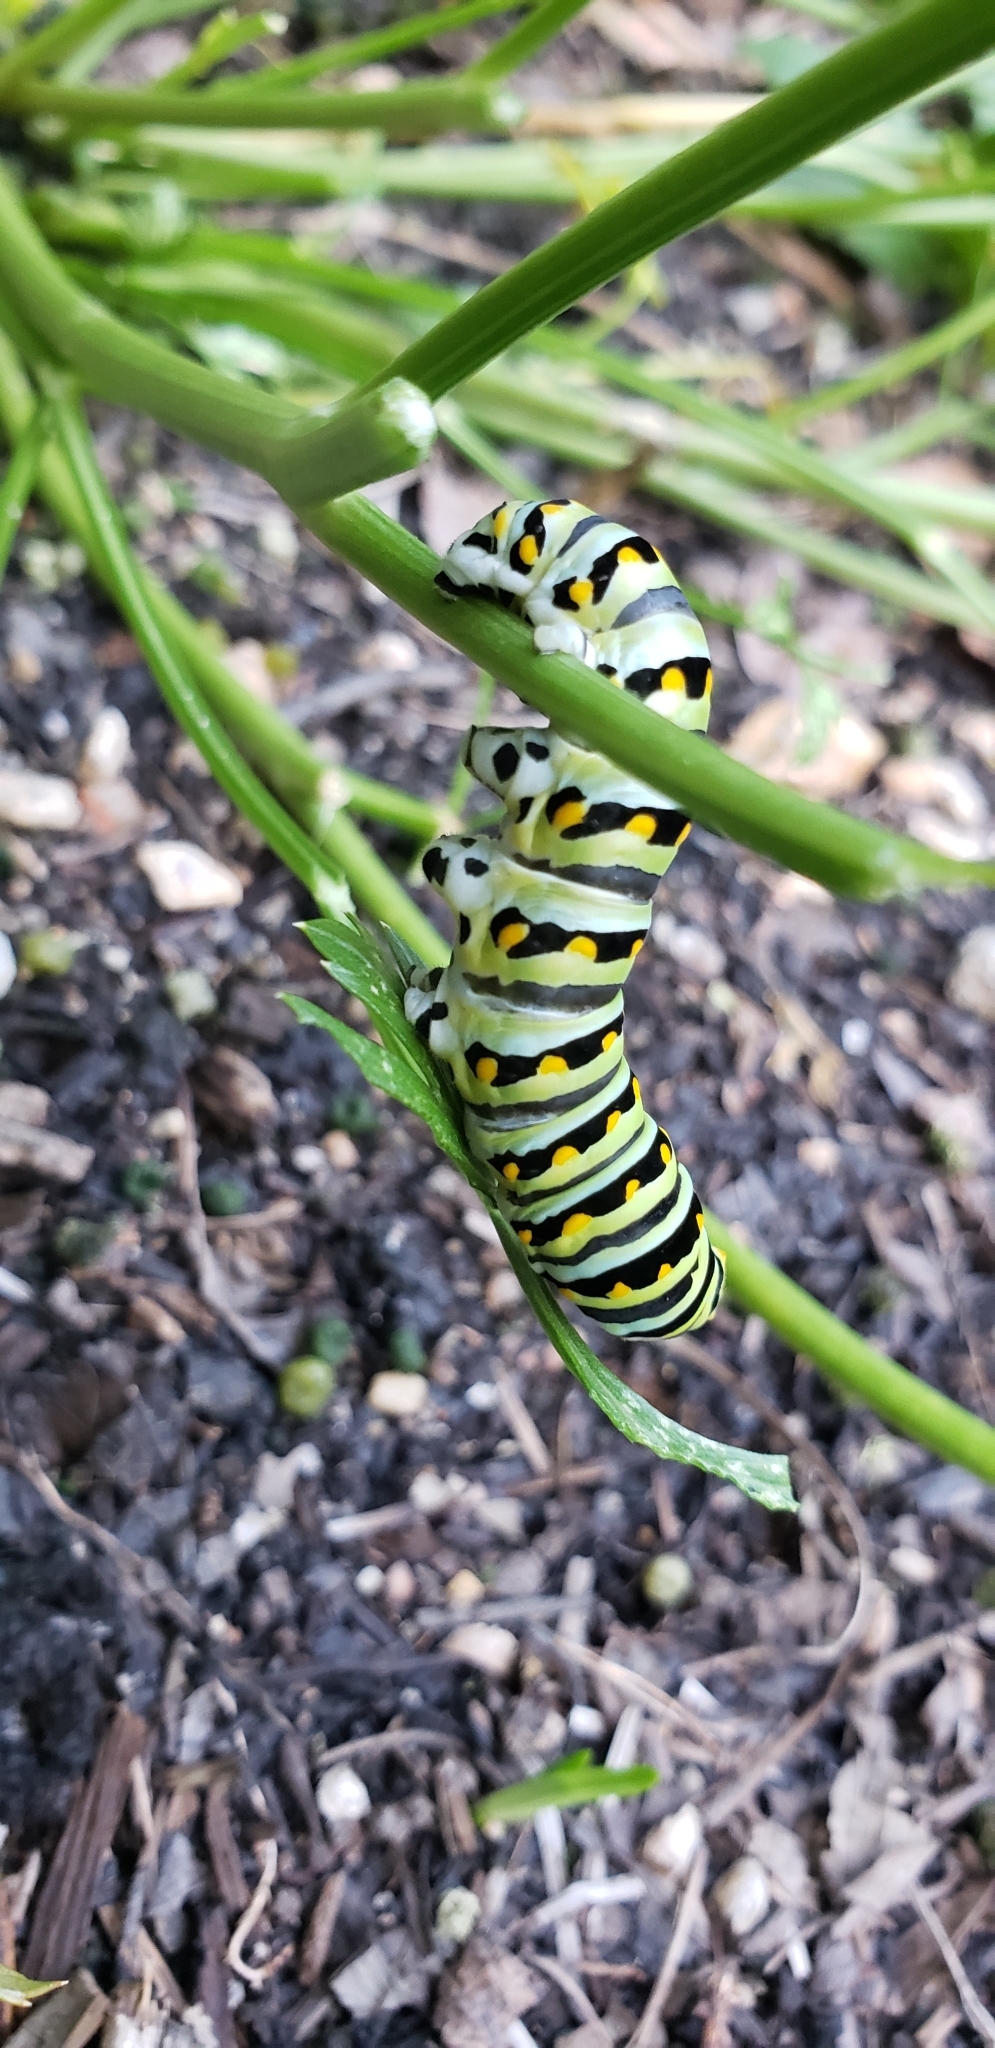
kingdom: Animalia
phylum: Arthropoda
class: Insecta
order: Lepidoptera
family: Papilionidae
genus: Papilio
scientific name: Papilio polyxenes
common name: Black swallowtail
